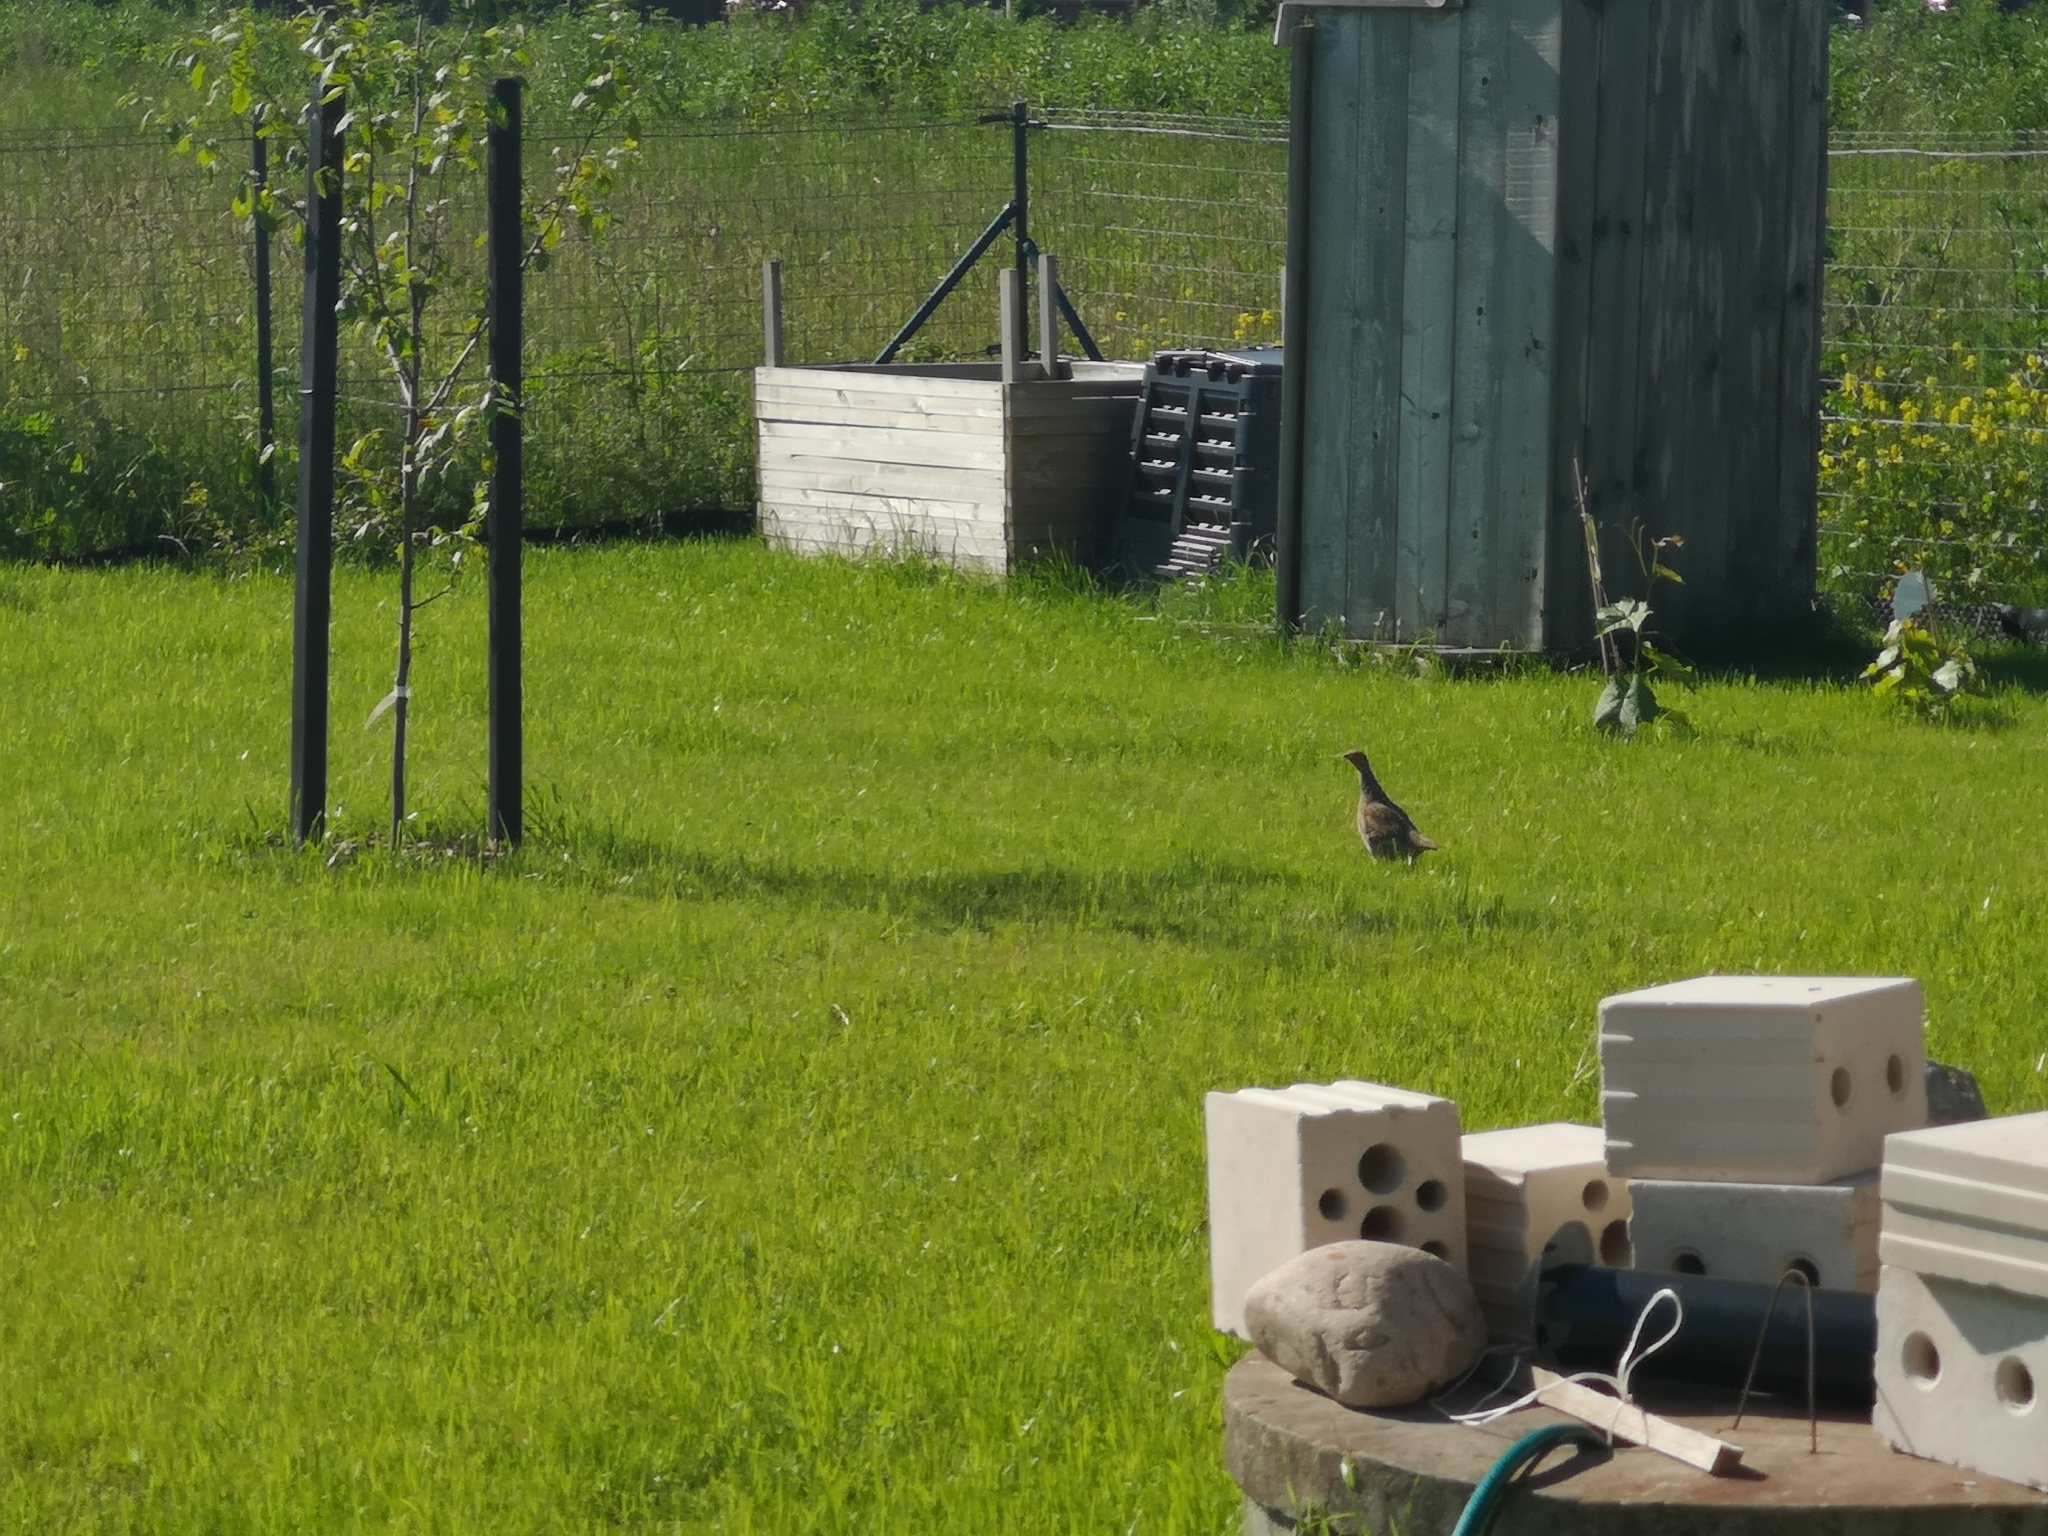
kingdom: Animalia
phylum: Chordata
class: Aves
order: Galliformes
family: Phasianidae
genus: Perdix
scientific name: Perdix perdix
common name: Grey partridge
